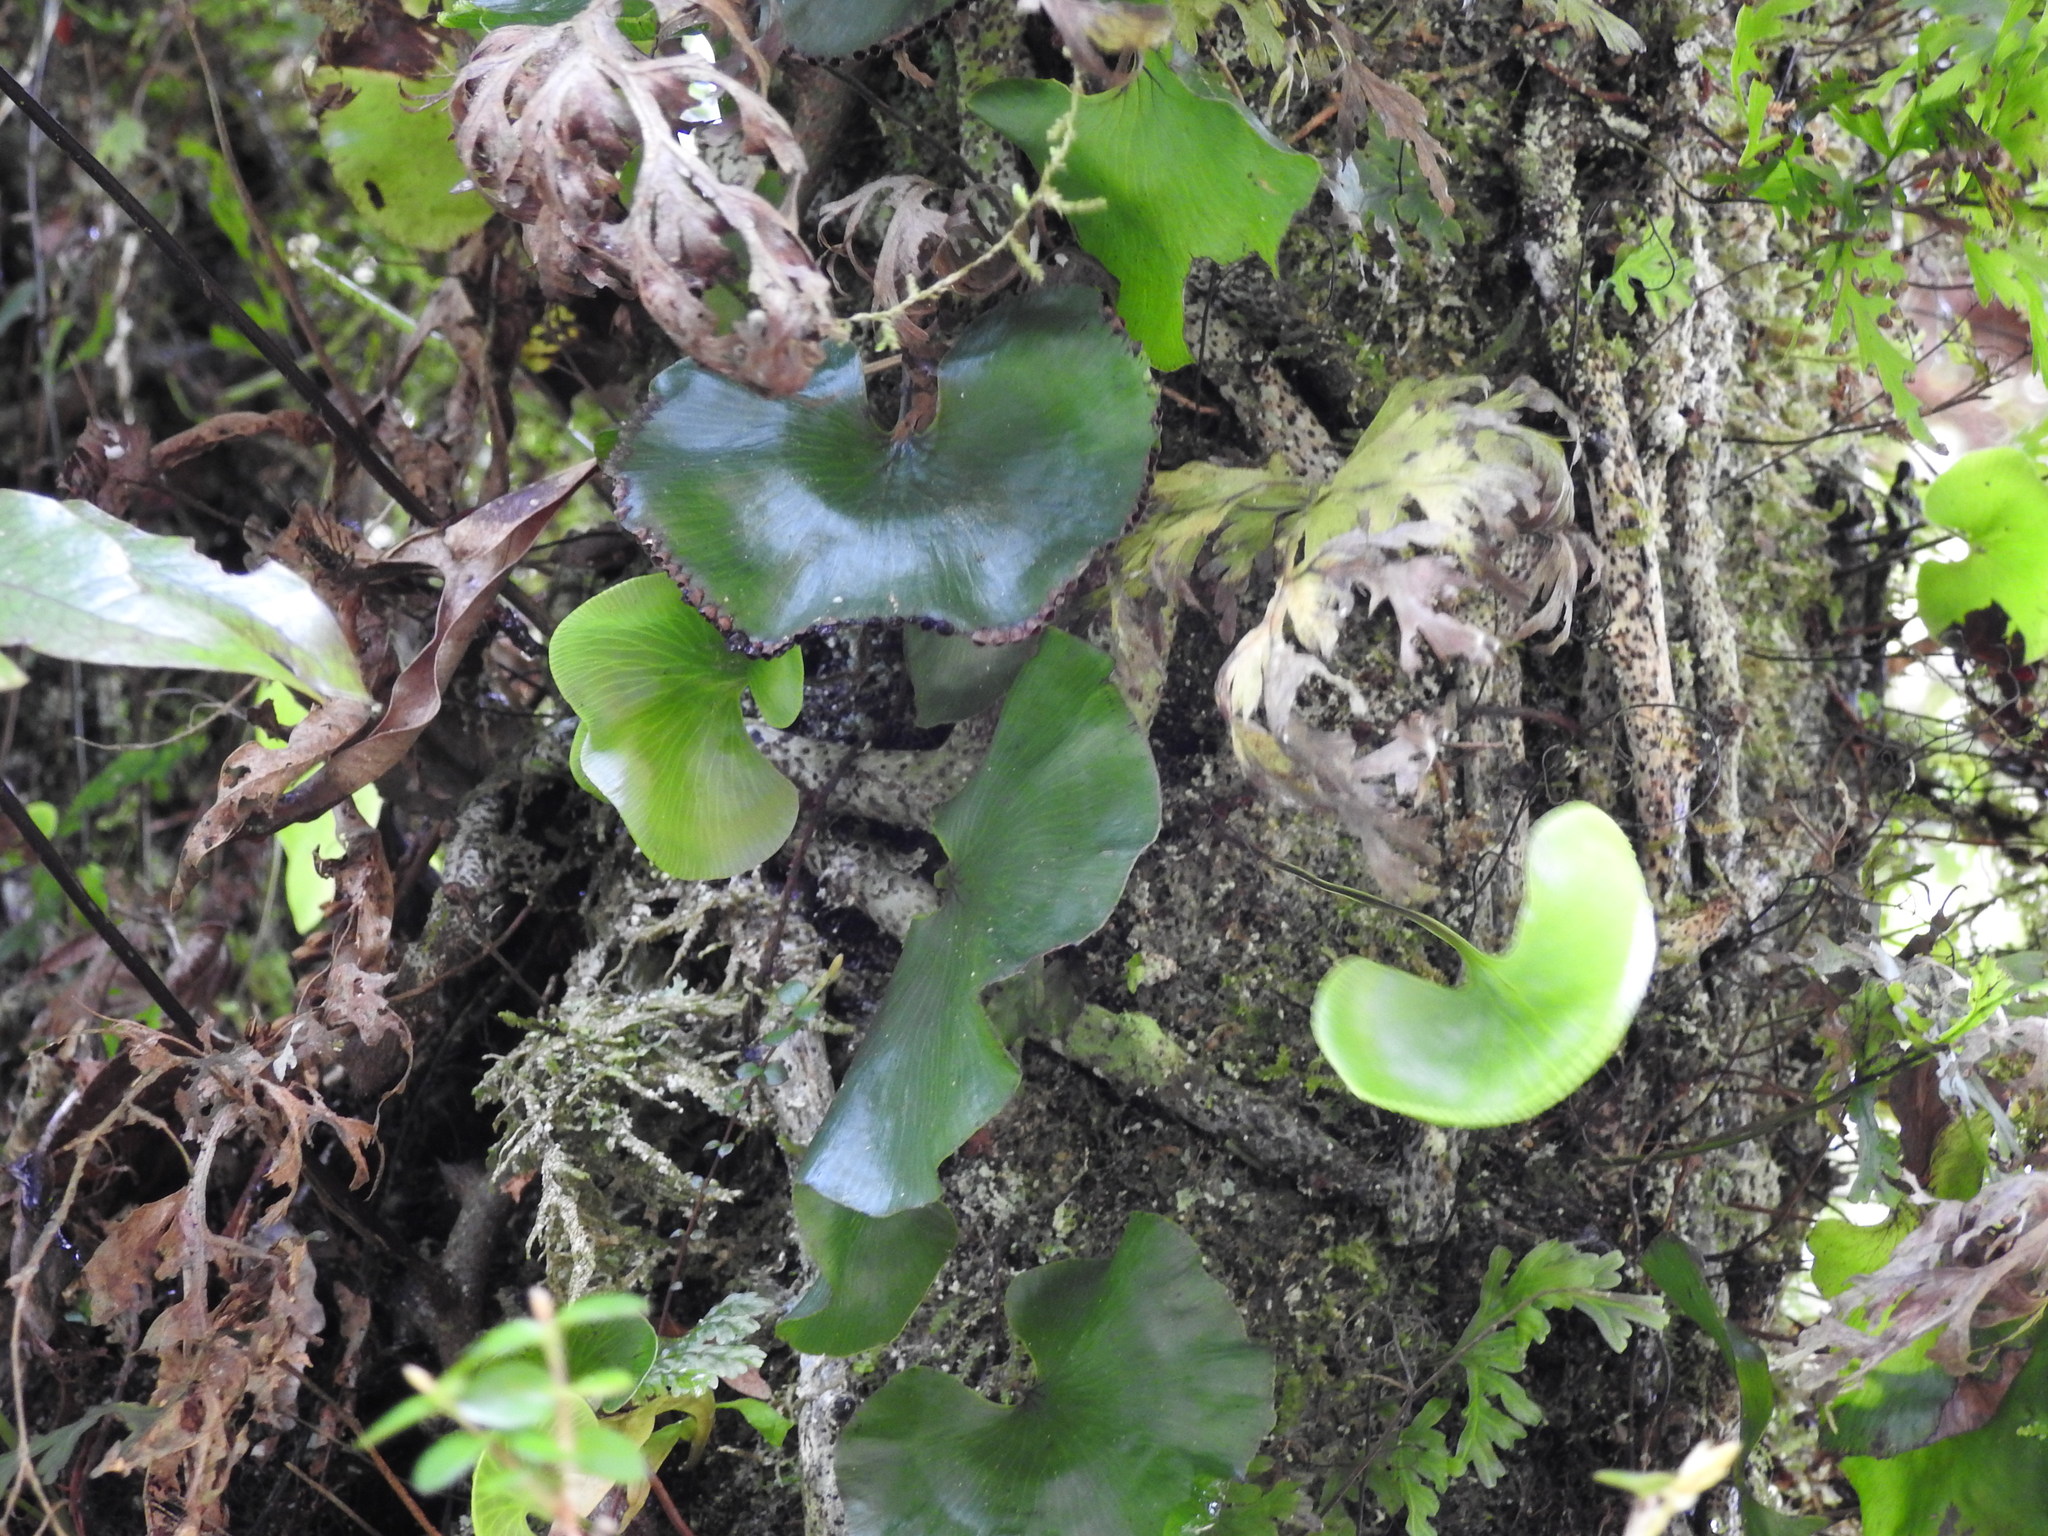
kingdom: Plantae
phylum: Tracheophyta
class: Polypodiopsida
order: Hymenophyllales
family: Hymenophyllaceae
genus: Hymenophyllum
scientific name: Hymenophyllum nephrophyllum
